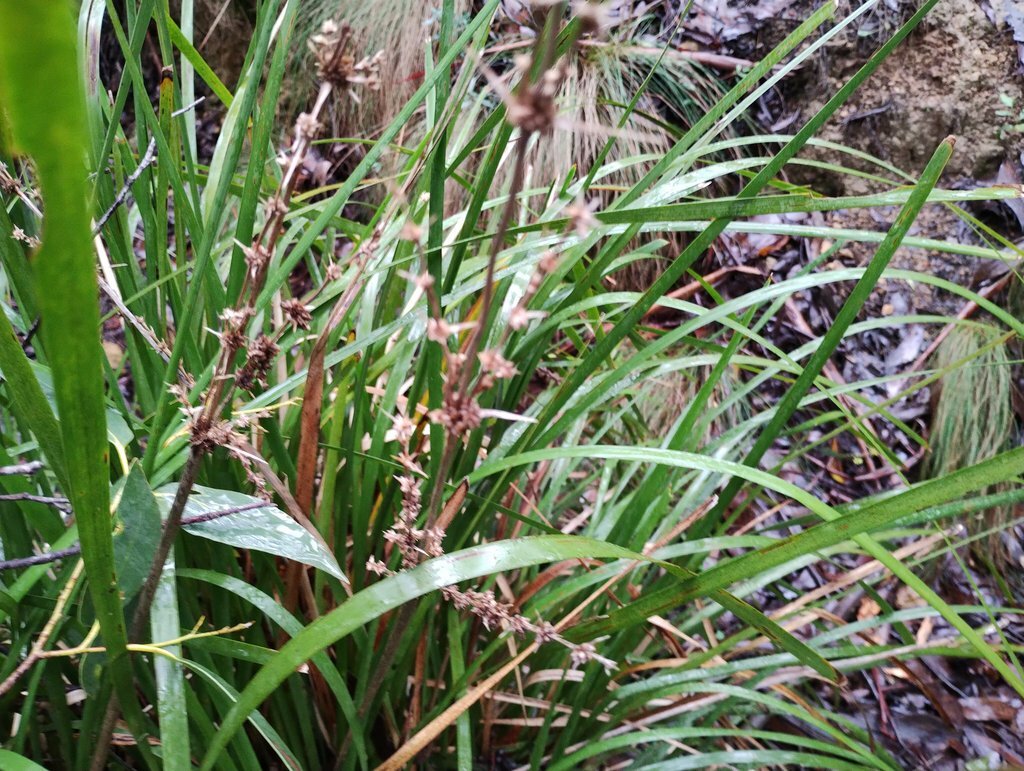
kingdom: Plantae
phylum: Tracheophyta
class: Liliopsida
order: Asparagales
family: Asparagaceae
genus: Lomandra
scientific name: Lomandra longifolia
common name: Longleaf mat-rush
